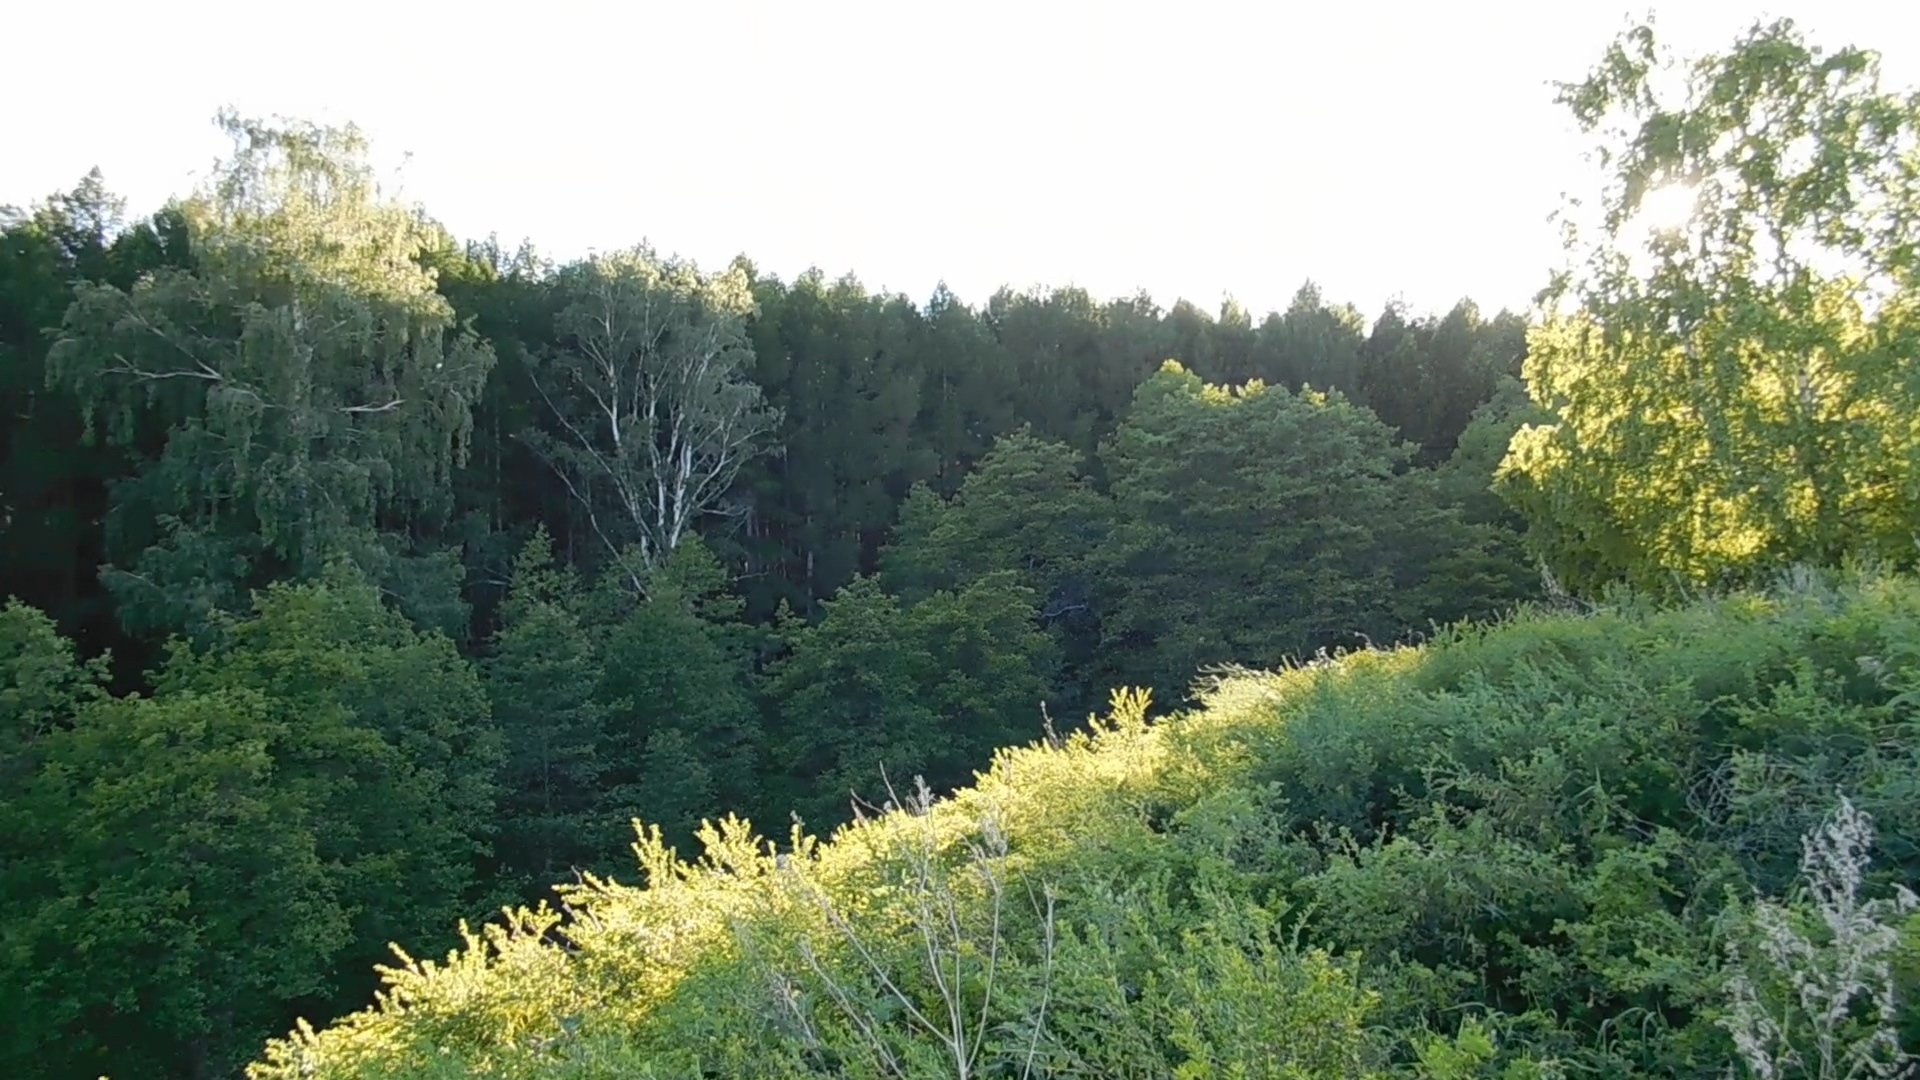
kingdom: Animalia
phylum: Chordata
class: Aves
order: Passeriformes
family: Acrocephalidae
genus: Acrocephalus
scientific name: Acrocephalus palustris
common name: Marsh warbler
